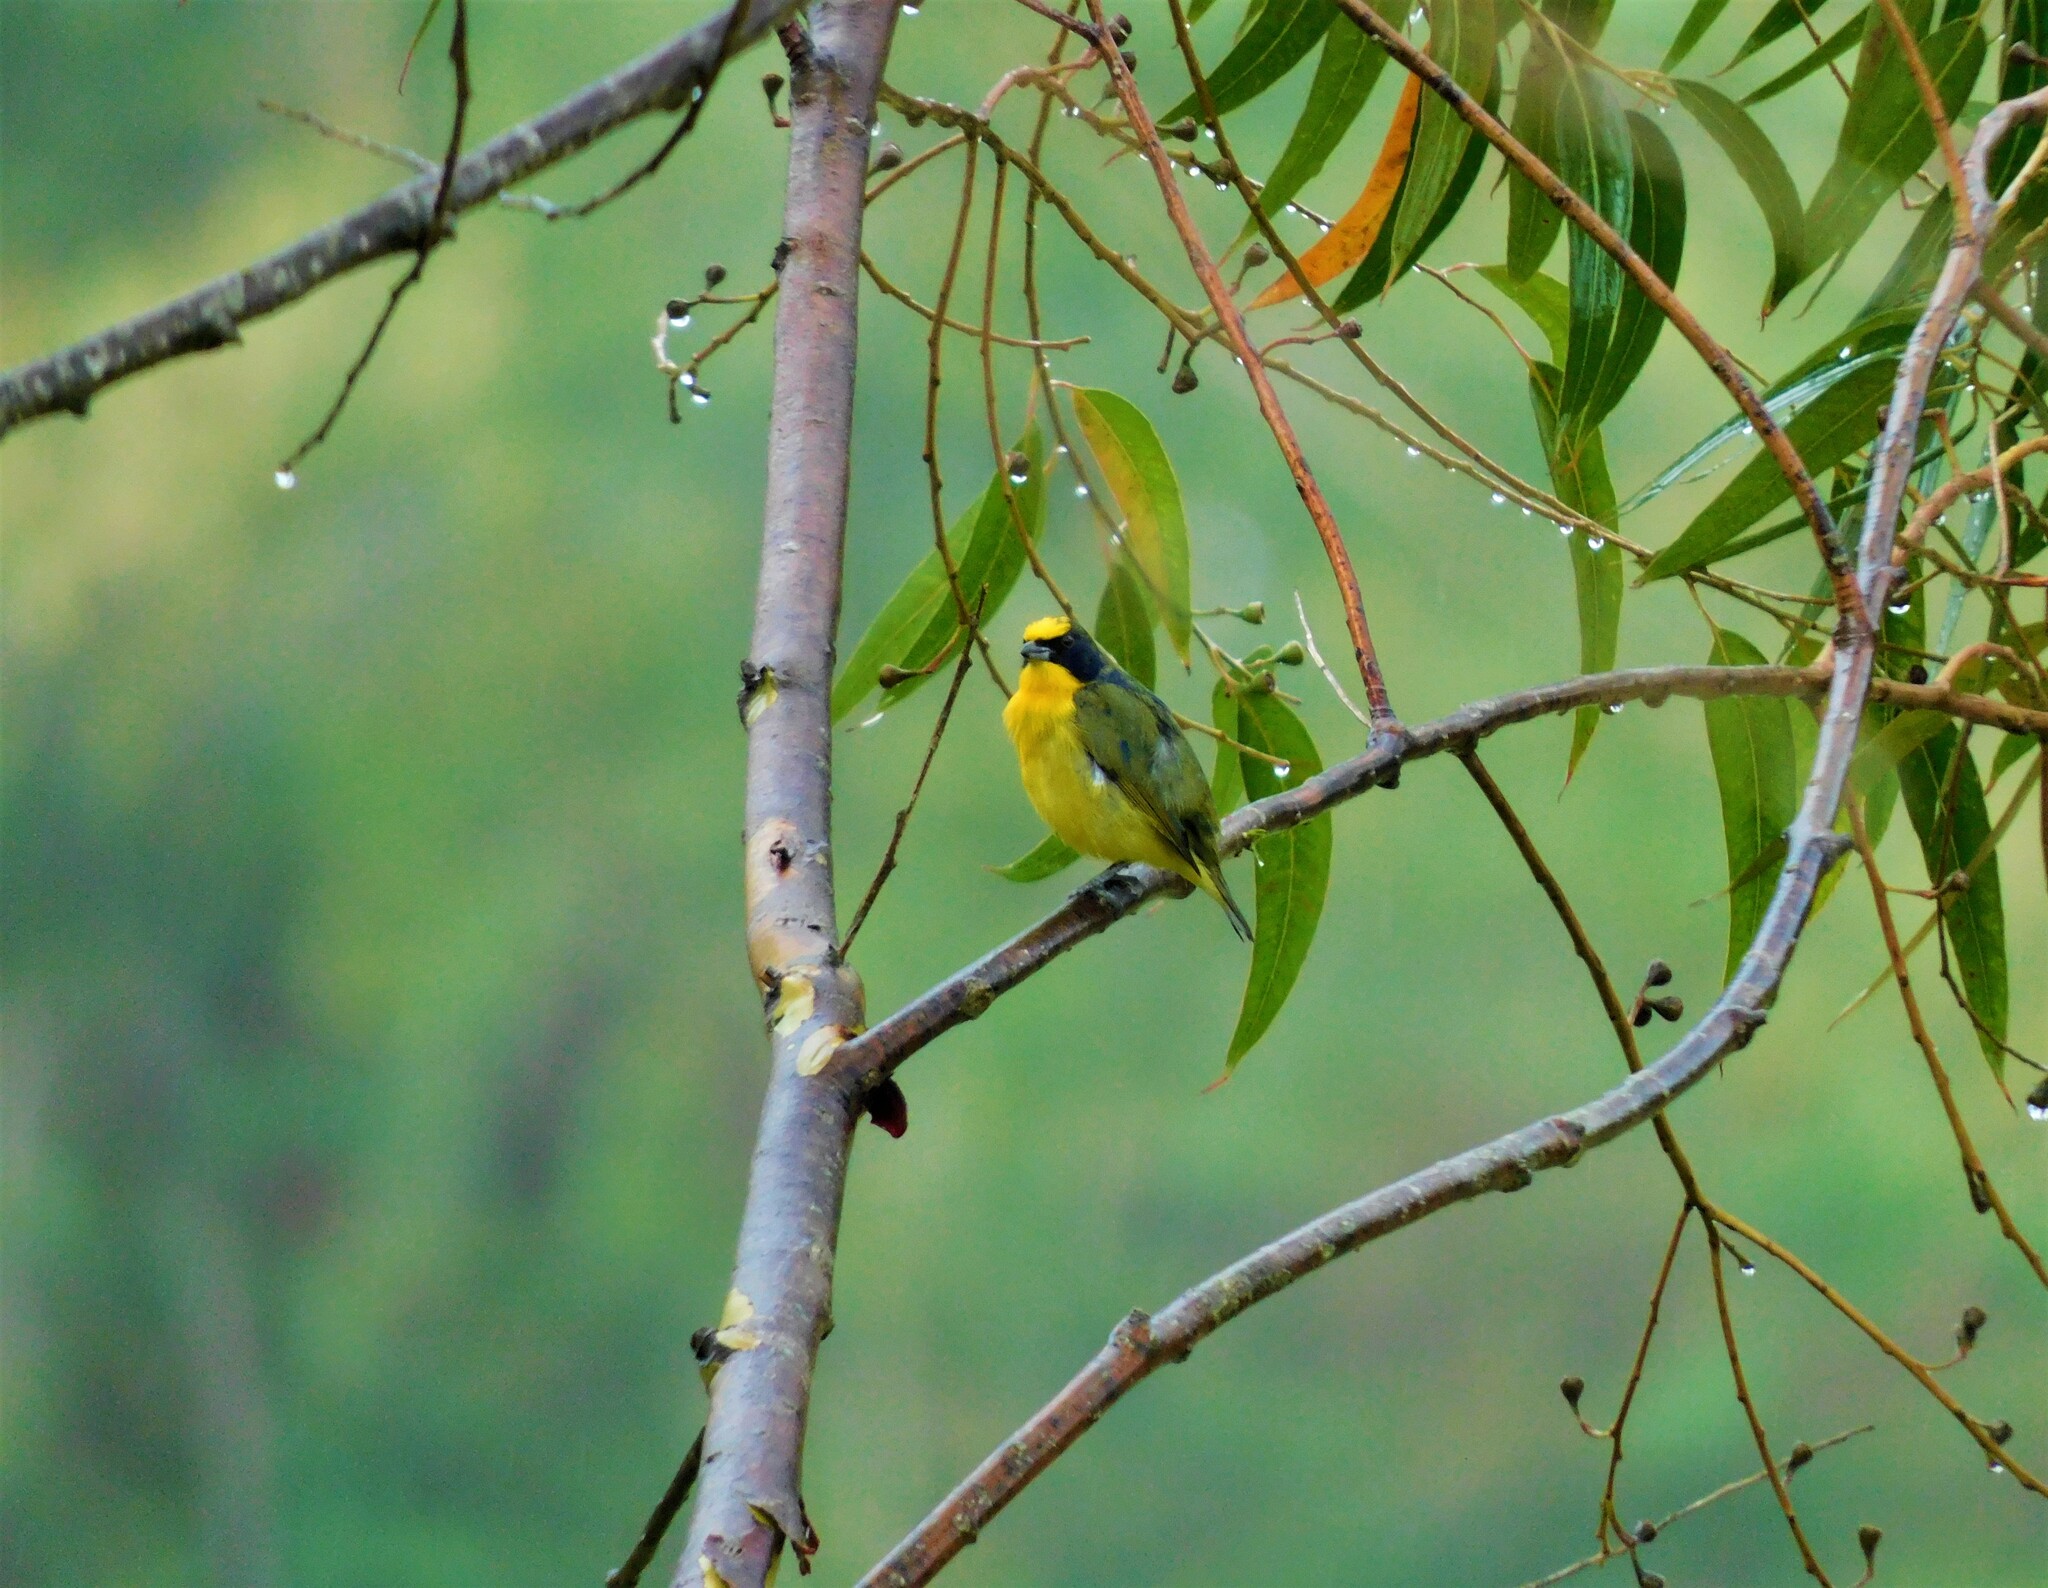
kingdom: Animalia
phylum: Chordata
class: Aves
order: Passeriformes
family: Fringillidae
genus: Euphonia
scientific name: Euphonia laniirostris
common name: Thick-billed euphonia
